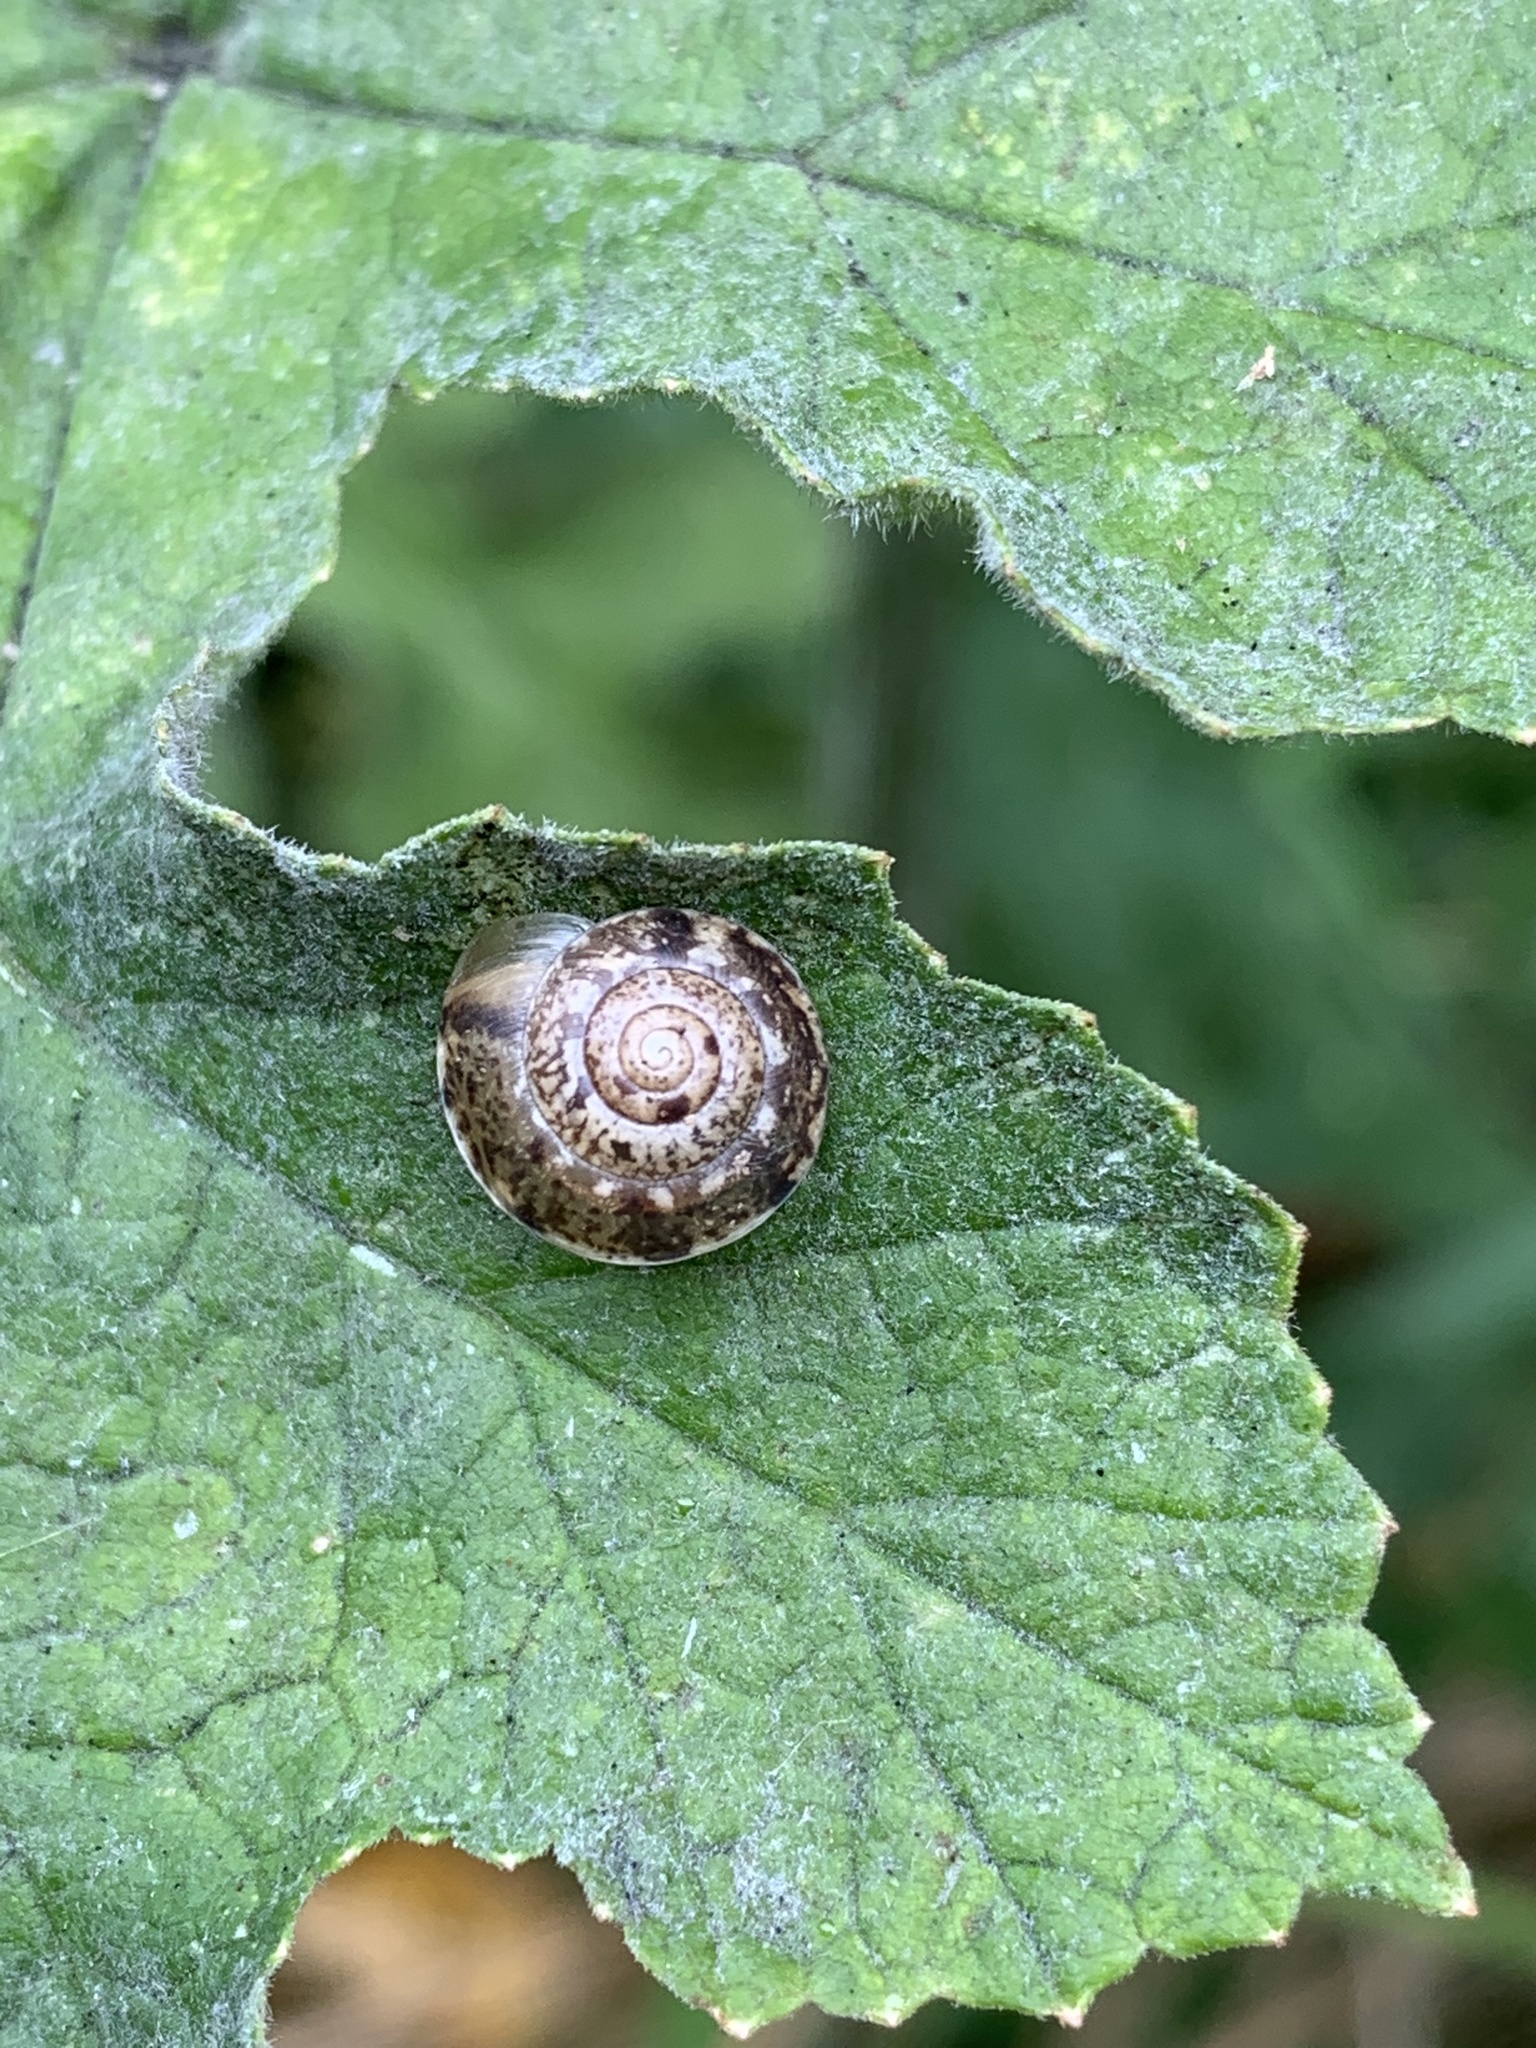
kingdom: Animalia
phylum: Mollusca
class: Gastropoda
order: Stylommatophora
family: Hygromiidae
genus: Hygromia
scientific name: Hygromia cinctella
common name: Girdled snail
